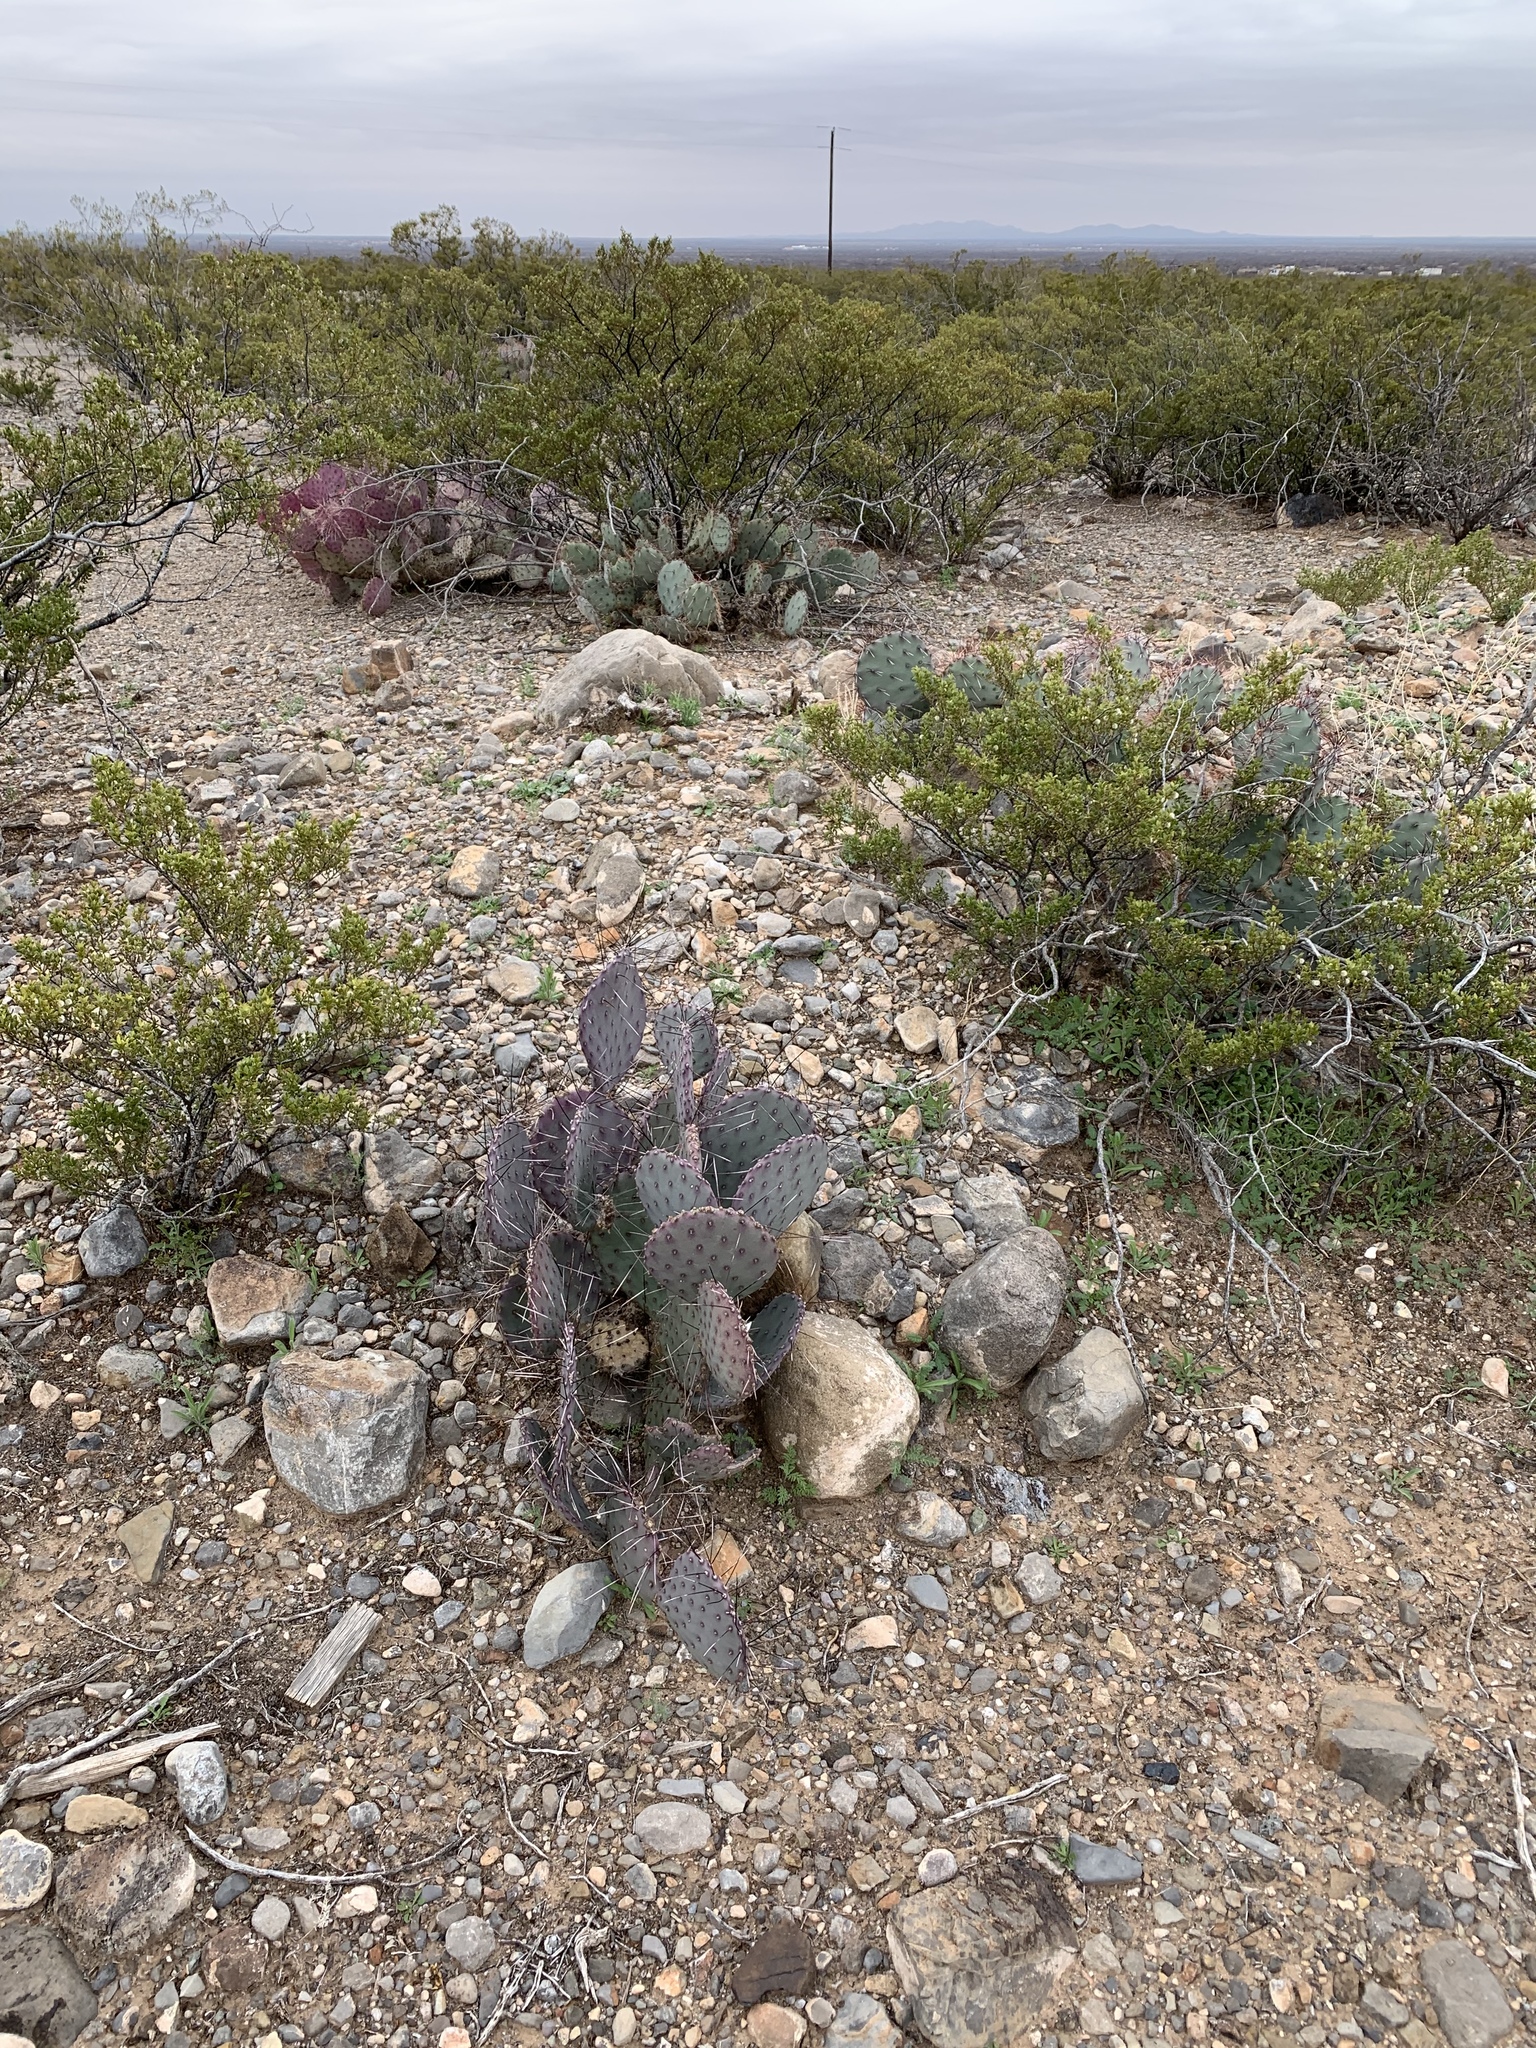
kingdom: Plantae
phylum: Tracheophyta
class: Magnoliopsida
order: Caryophyllales
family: Cactaceae
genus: Opuntia
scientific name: Opuntia macrocentra
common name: Purple prickly-pear
